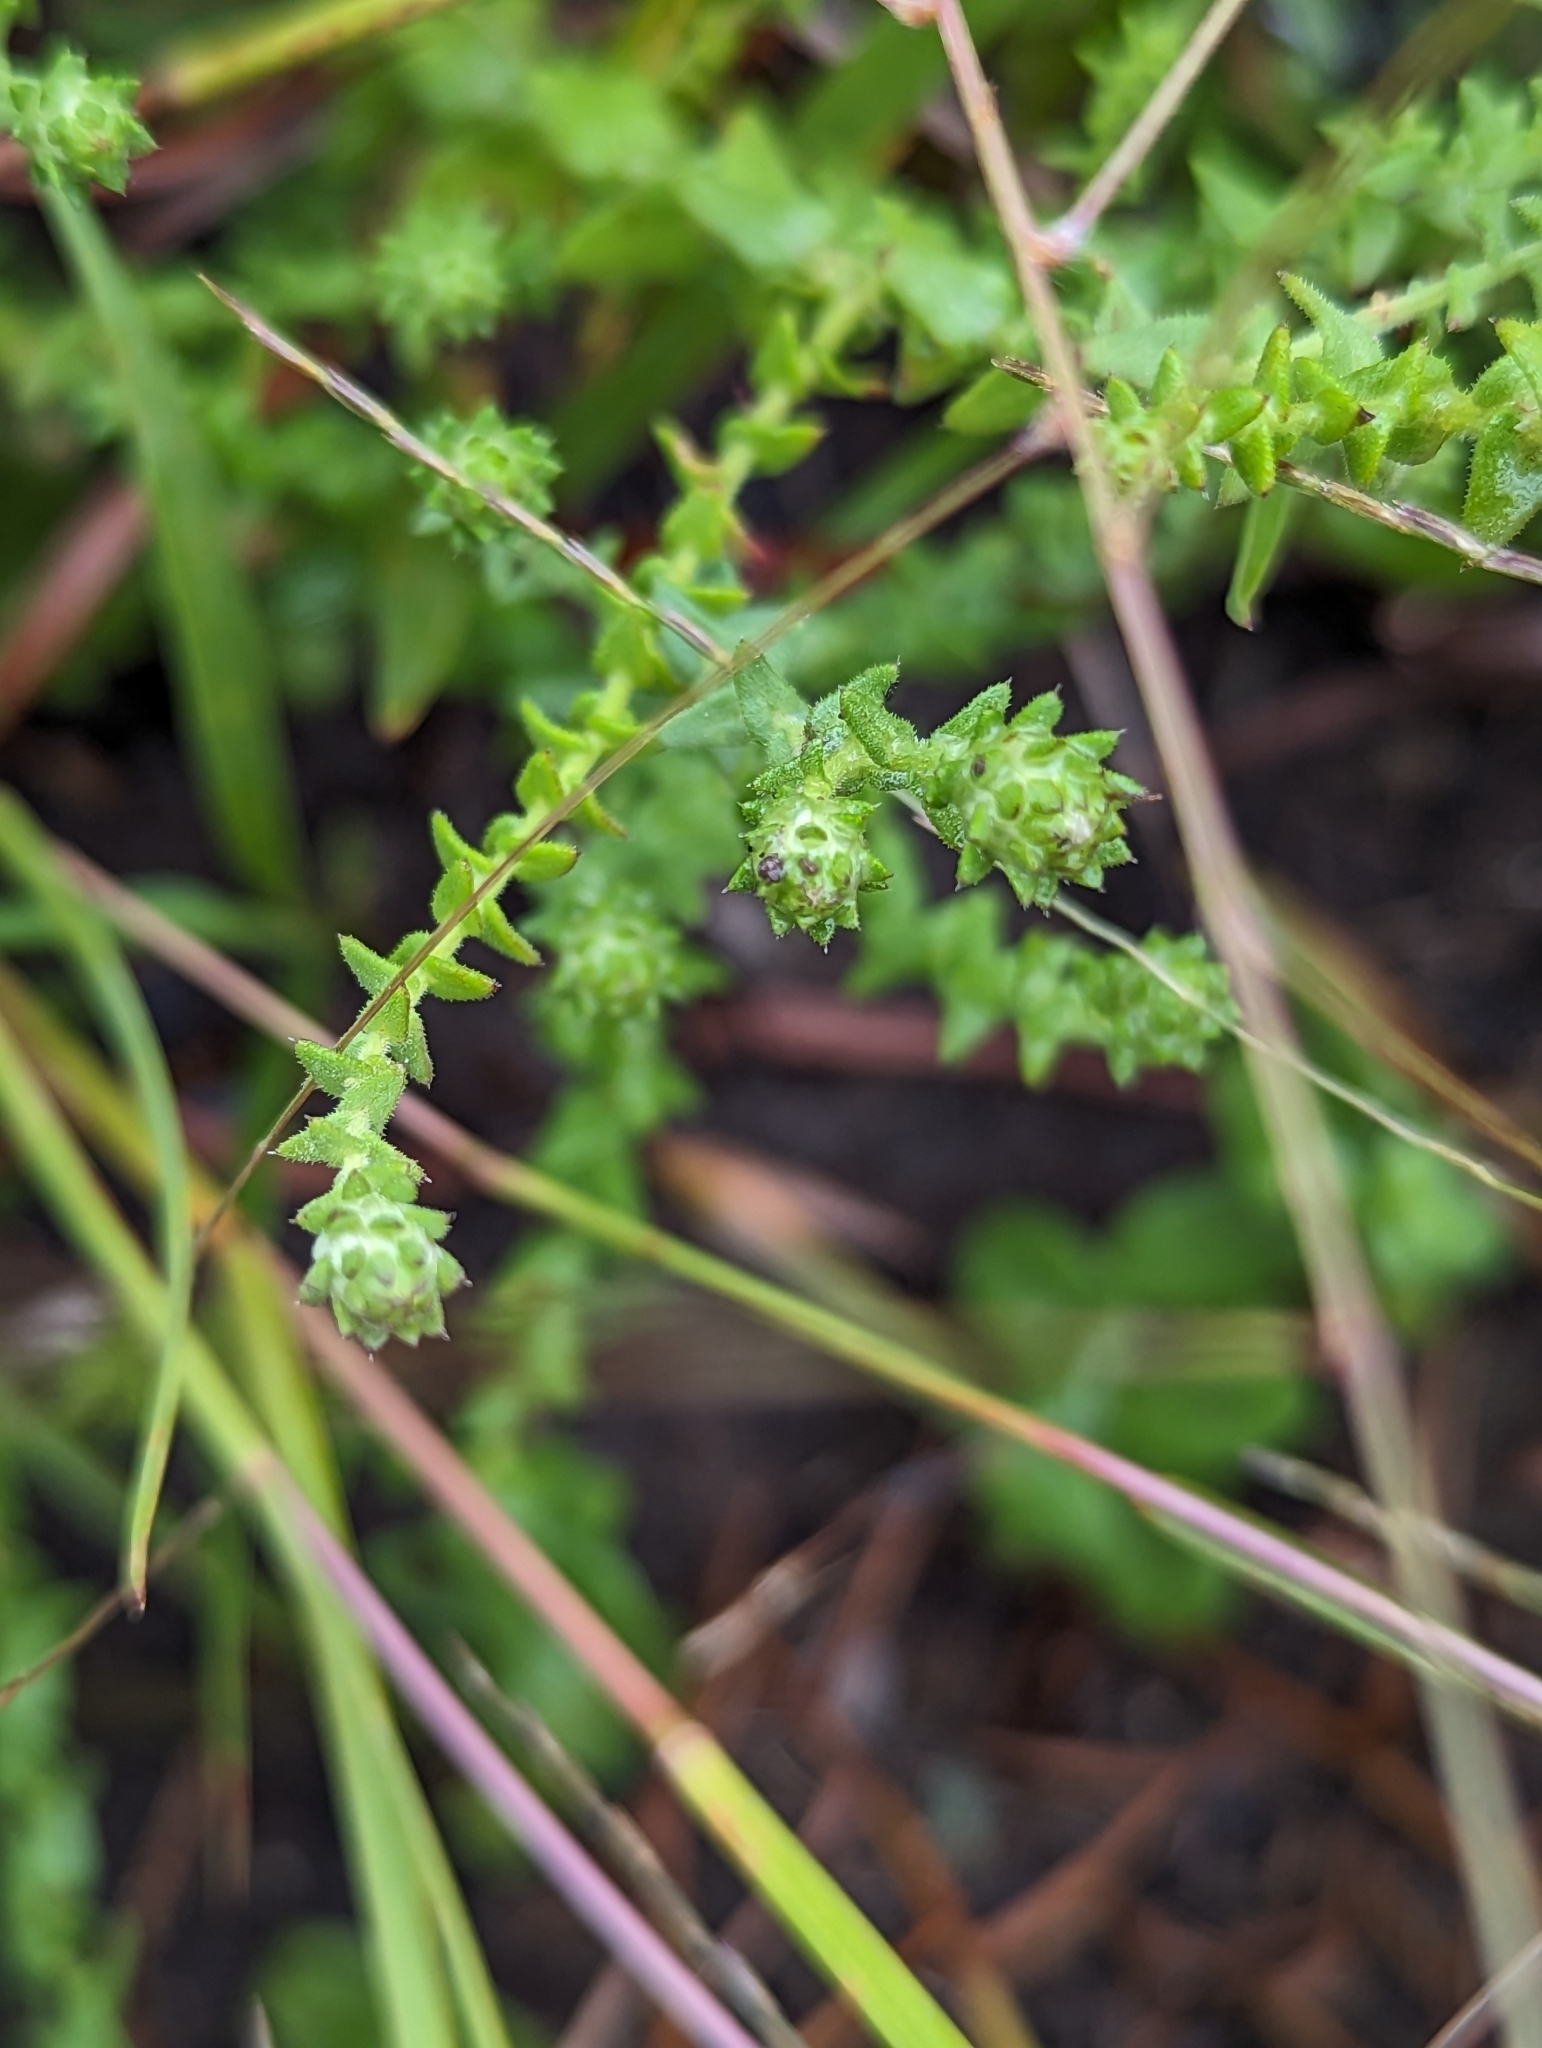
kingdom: Plantae
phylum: Tracheophyta
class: Magnoliopsida
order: Asterales
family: Asteraceae
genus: Symphyotrichum
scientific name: Symphyotrichum walteri
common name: Walter's aster
